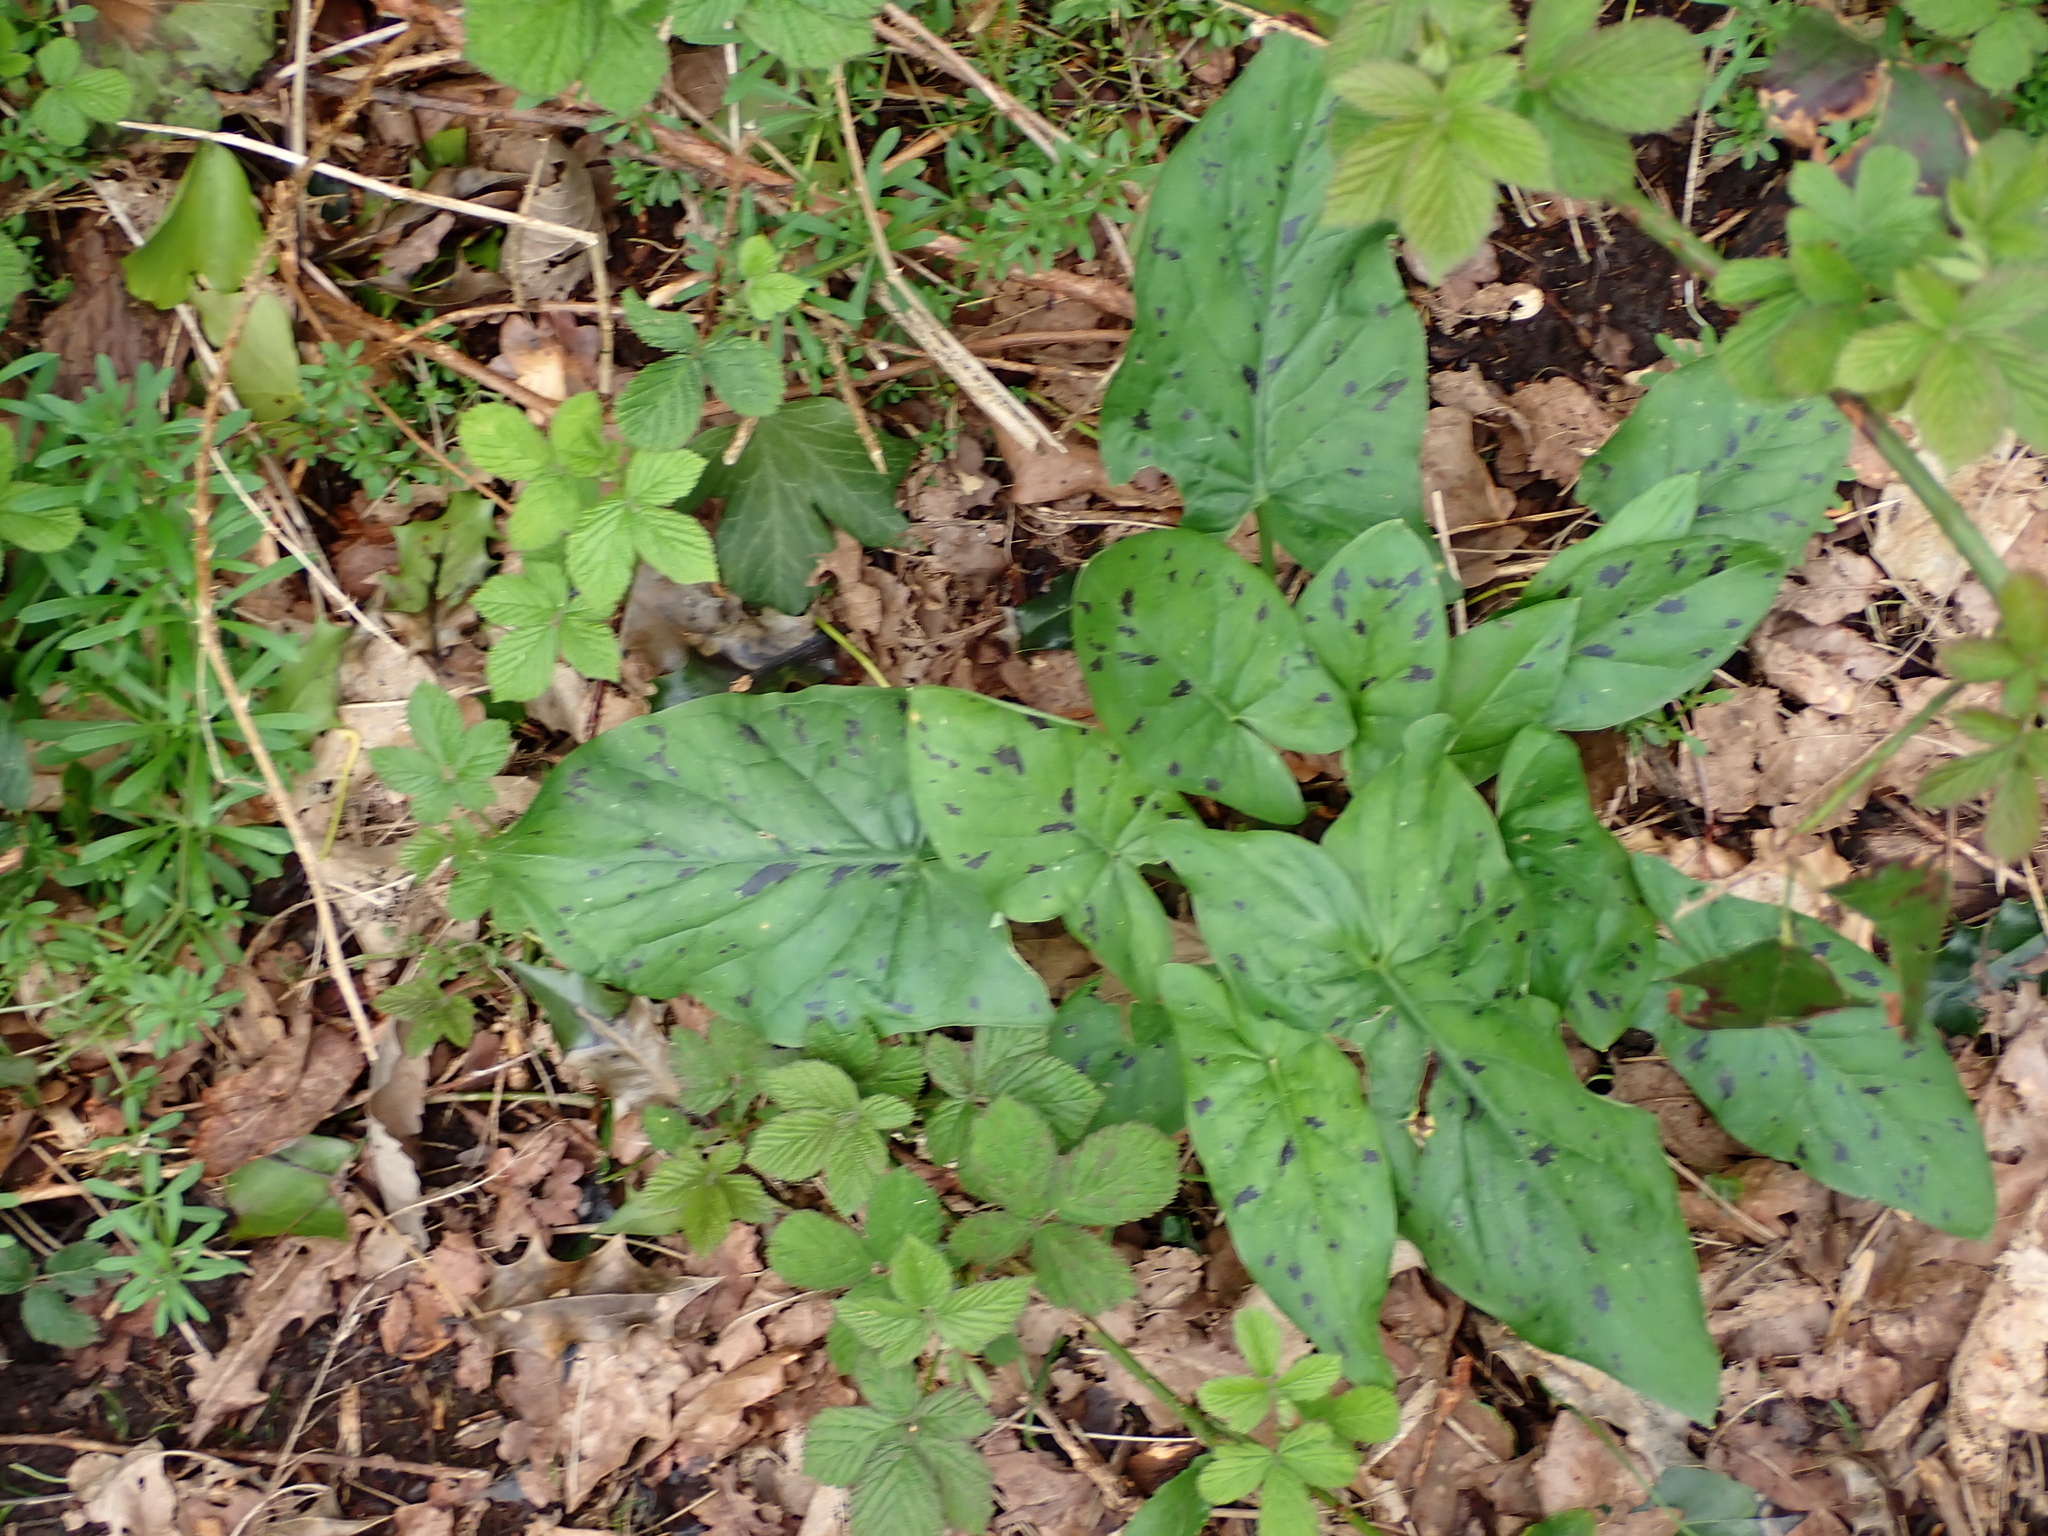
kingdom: Plantae
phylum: Tracheophyta
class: Liliopsida
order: Alismatales
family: Araceae
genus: Arum
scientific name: Arum maculatum
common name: Lords-and-ladies
